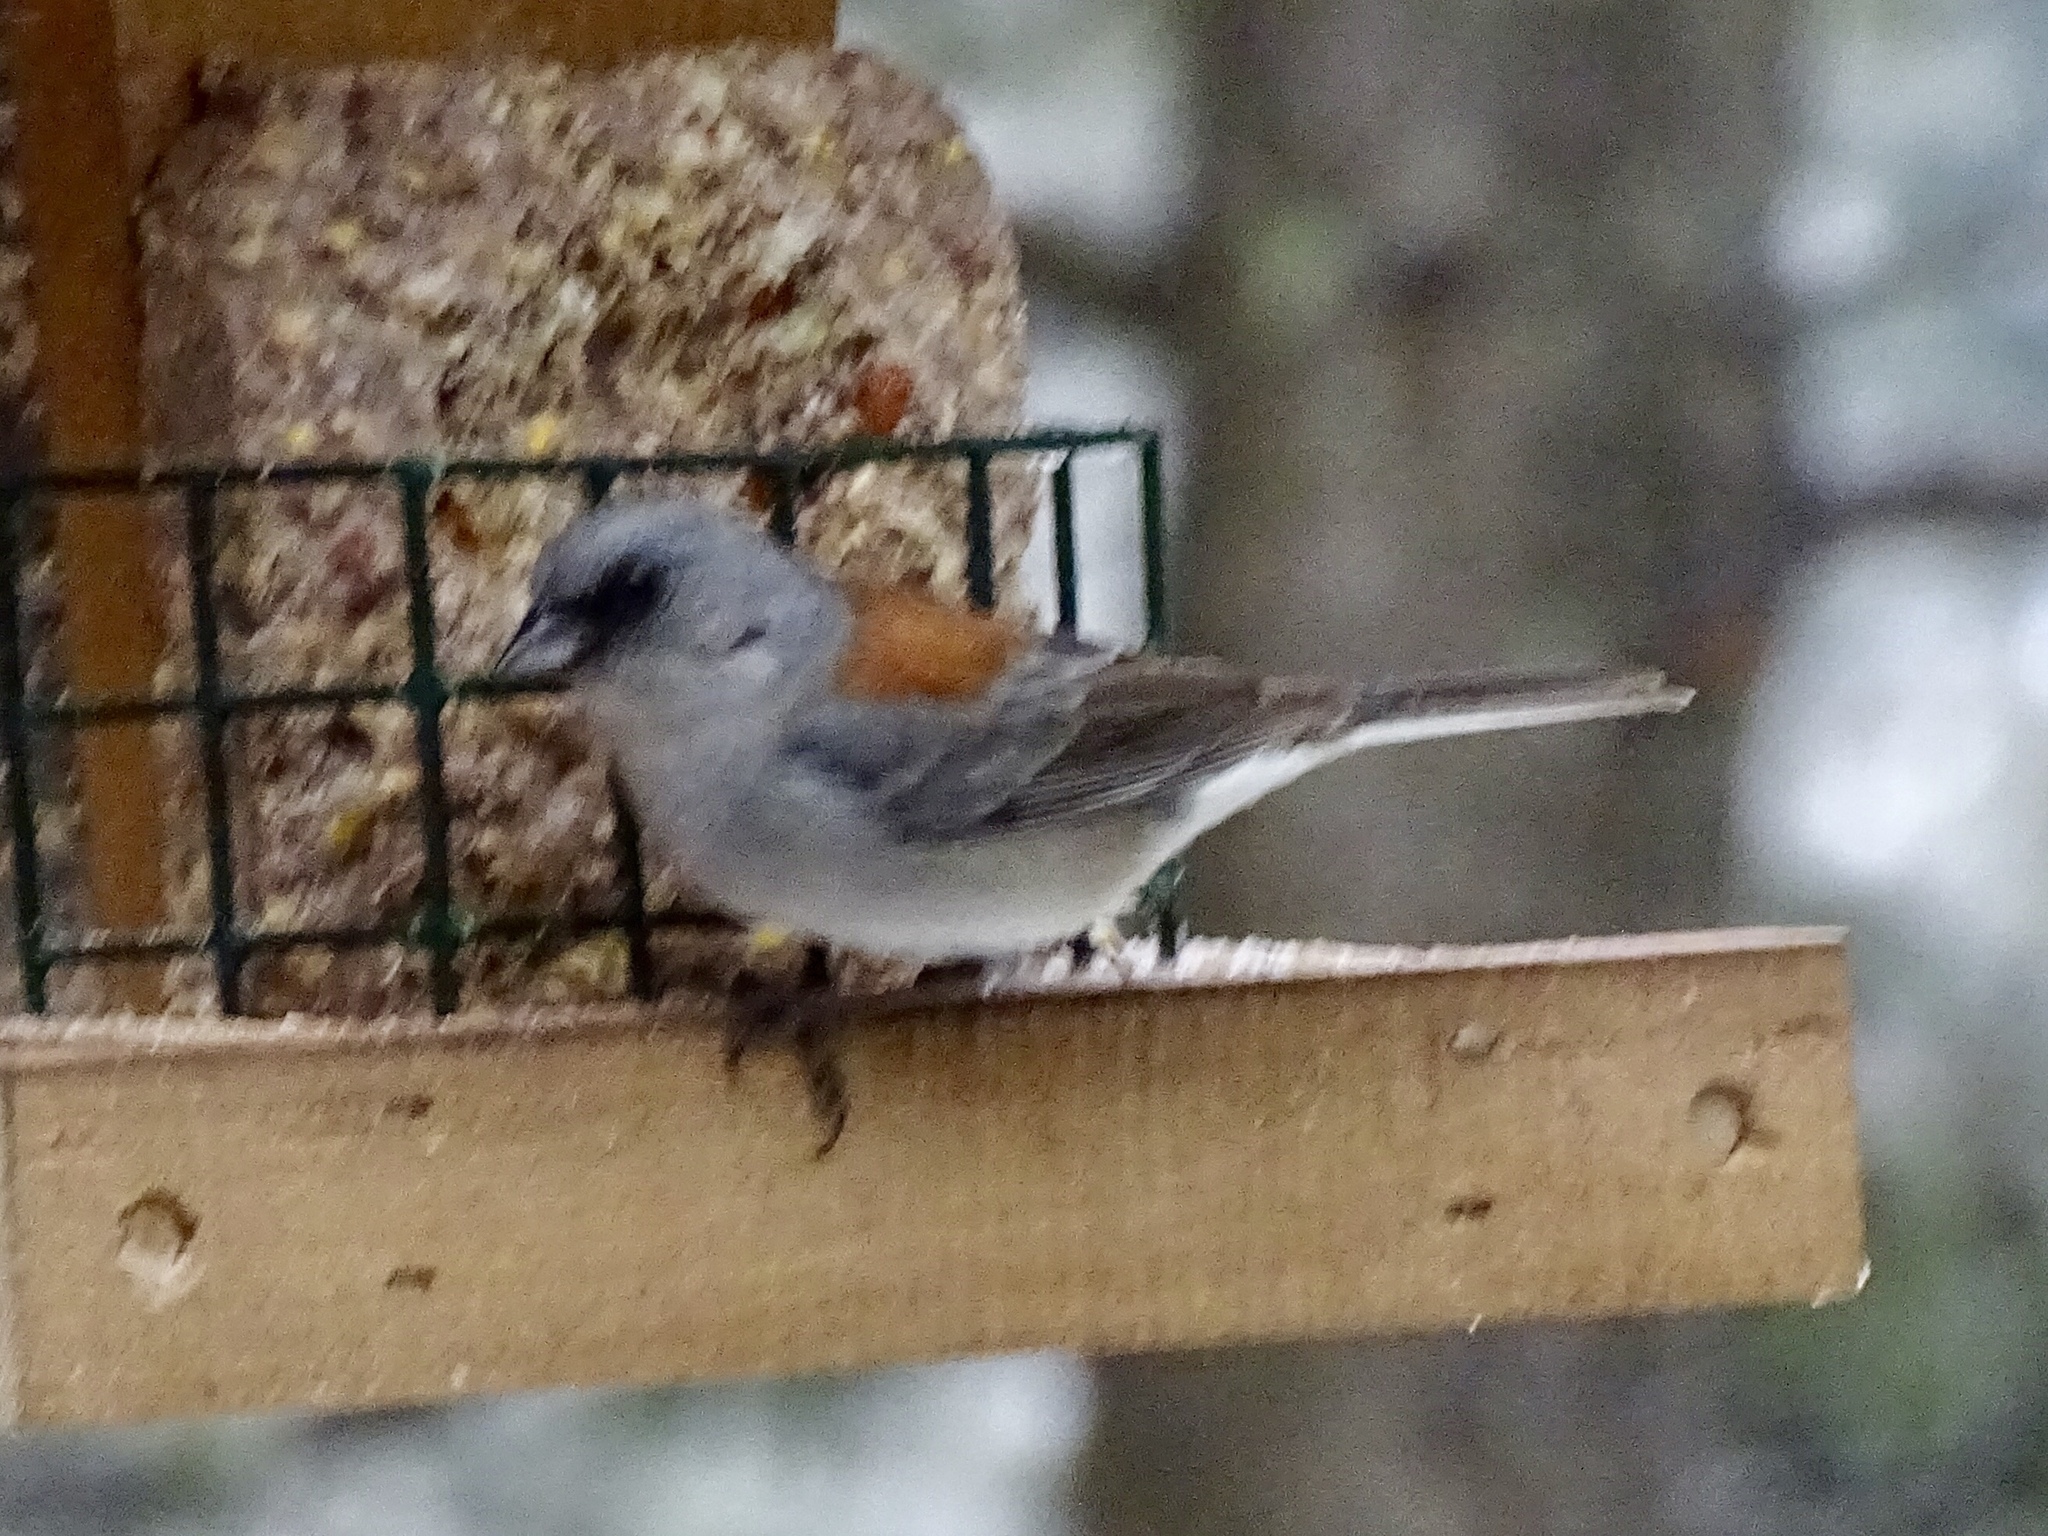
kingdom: Animalia
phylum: Chordata
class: Aves
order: Passeriformes
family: Passerellidae
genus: Junco
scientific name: Junco hyemalis
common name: Dark-eyed junco
